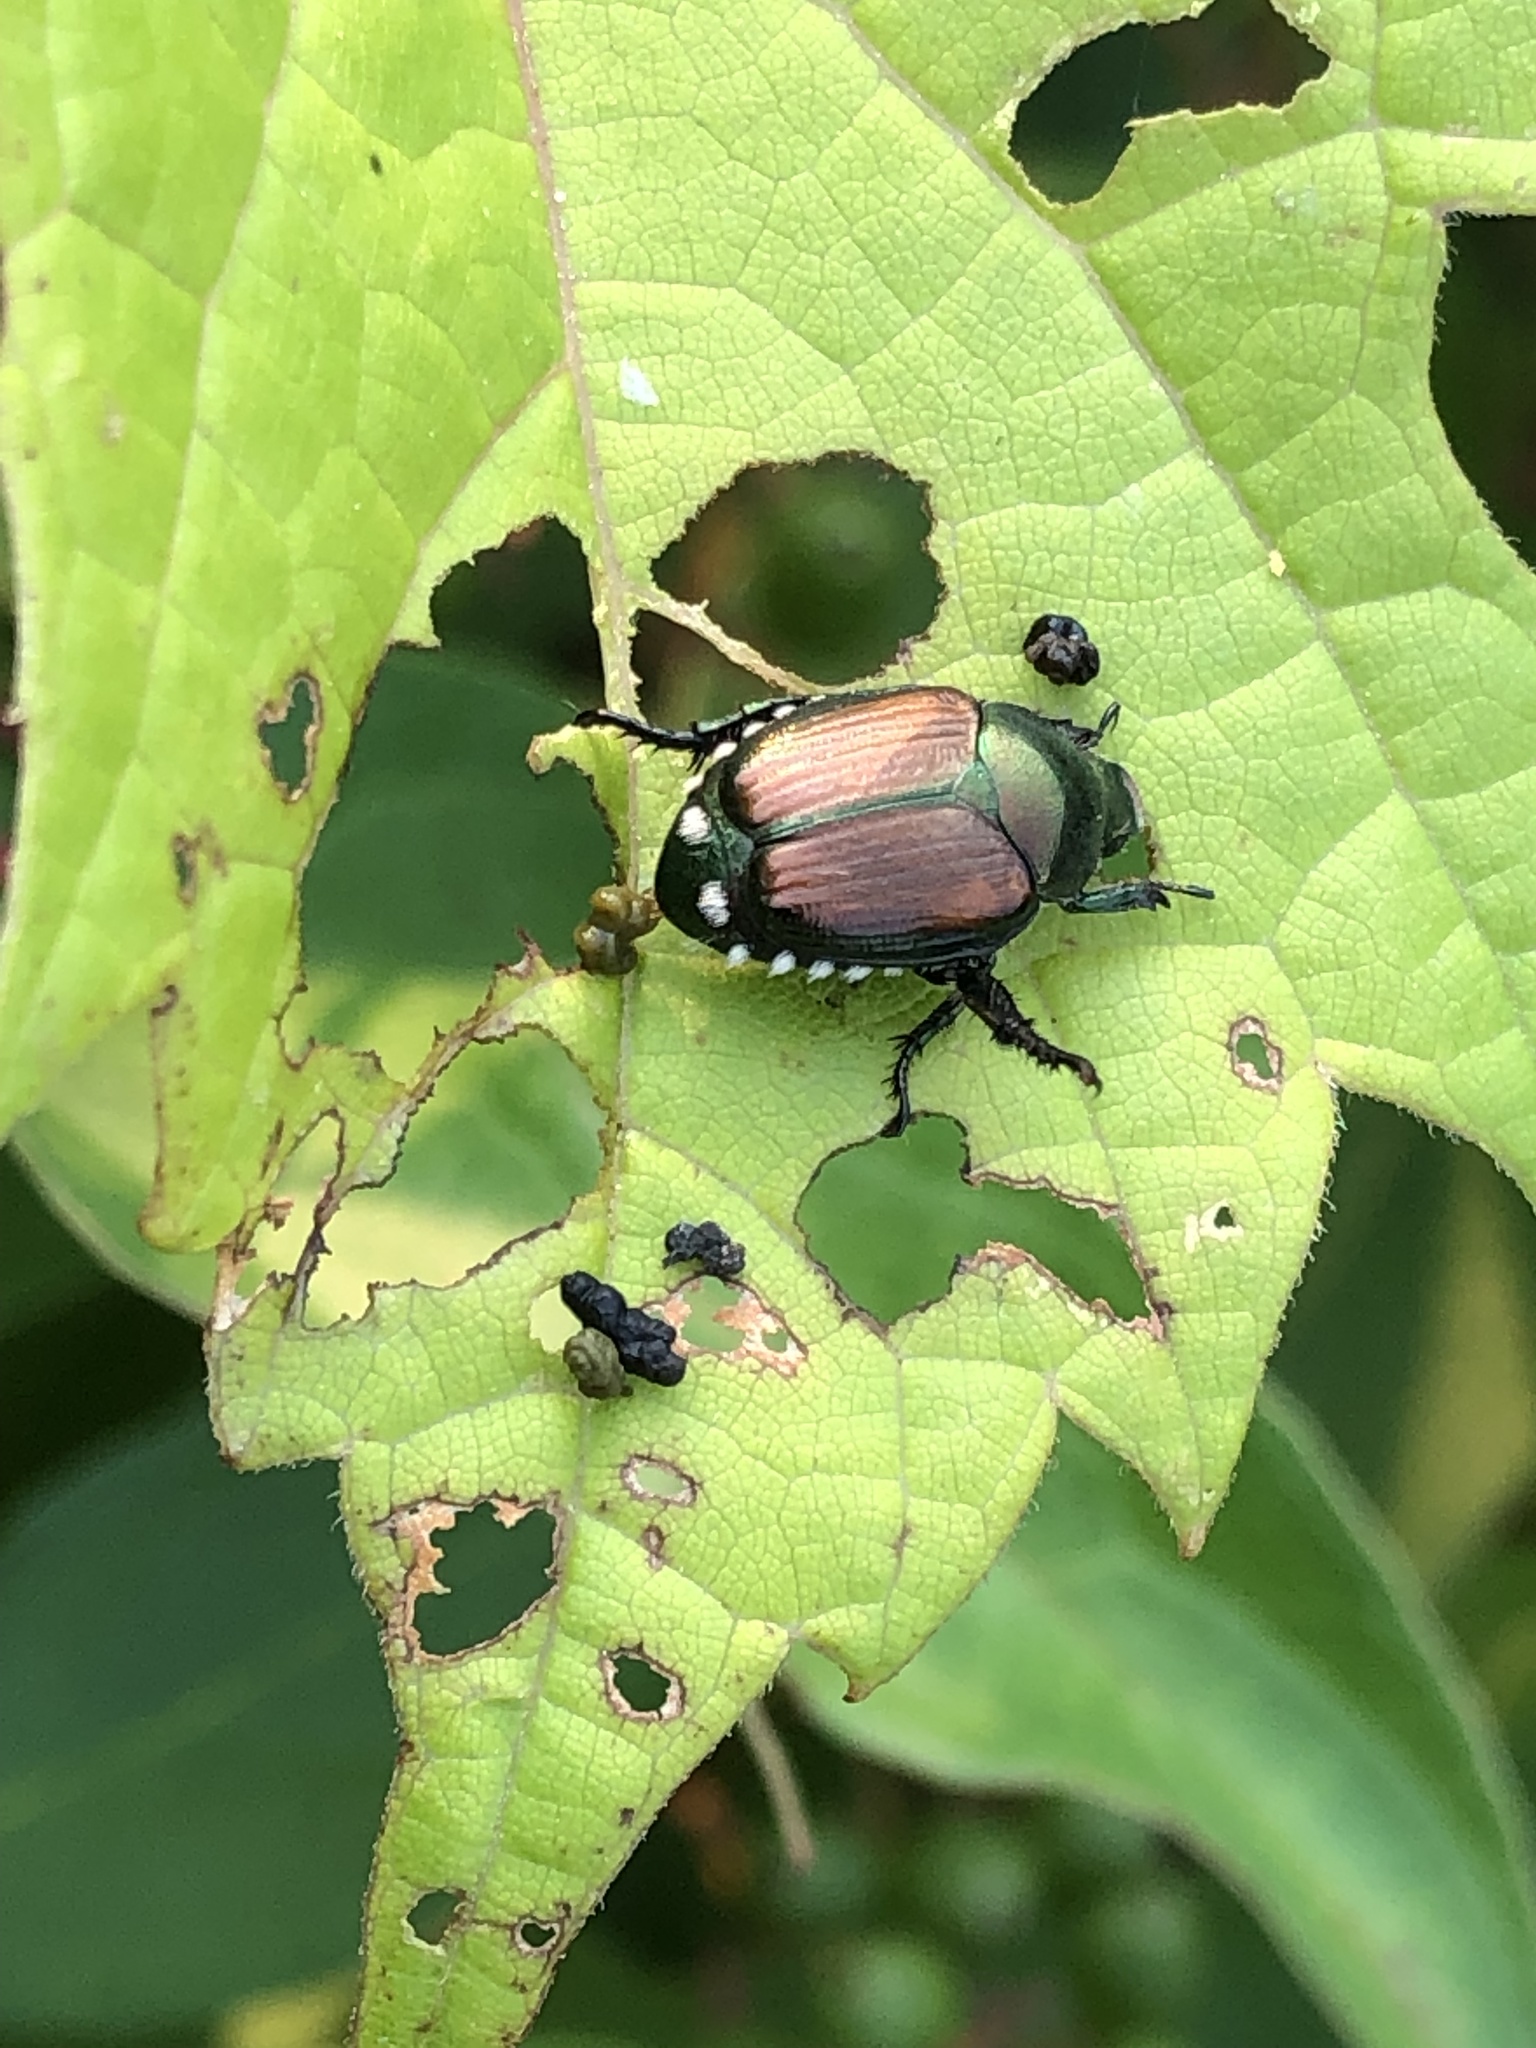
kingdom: Animalia
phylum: Arthropoda
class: Insecta
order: Coleoptera
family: Scarabaeidae
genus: Popillia
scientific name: Popillia japonica
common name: Japanese beetle
